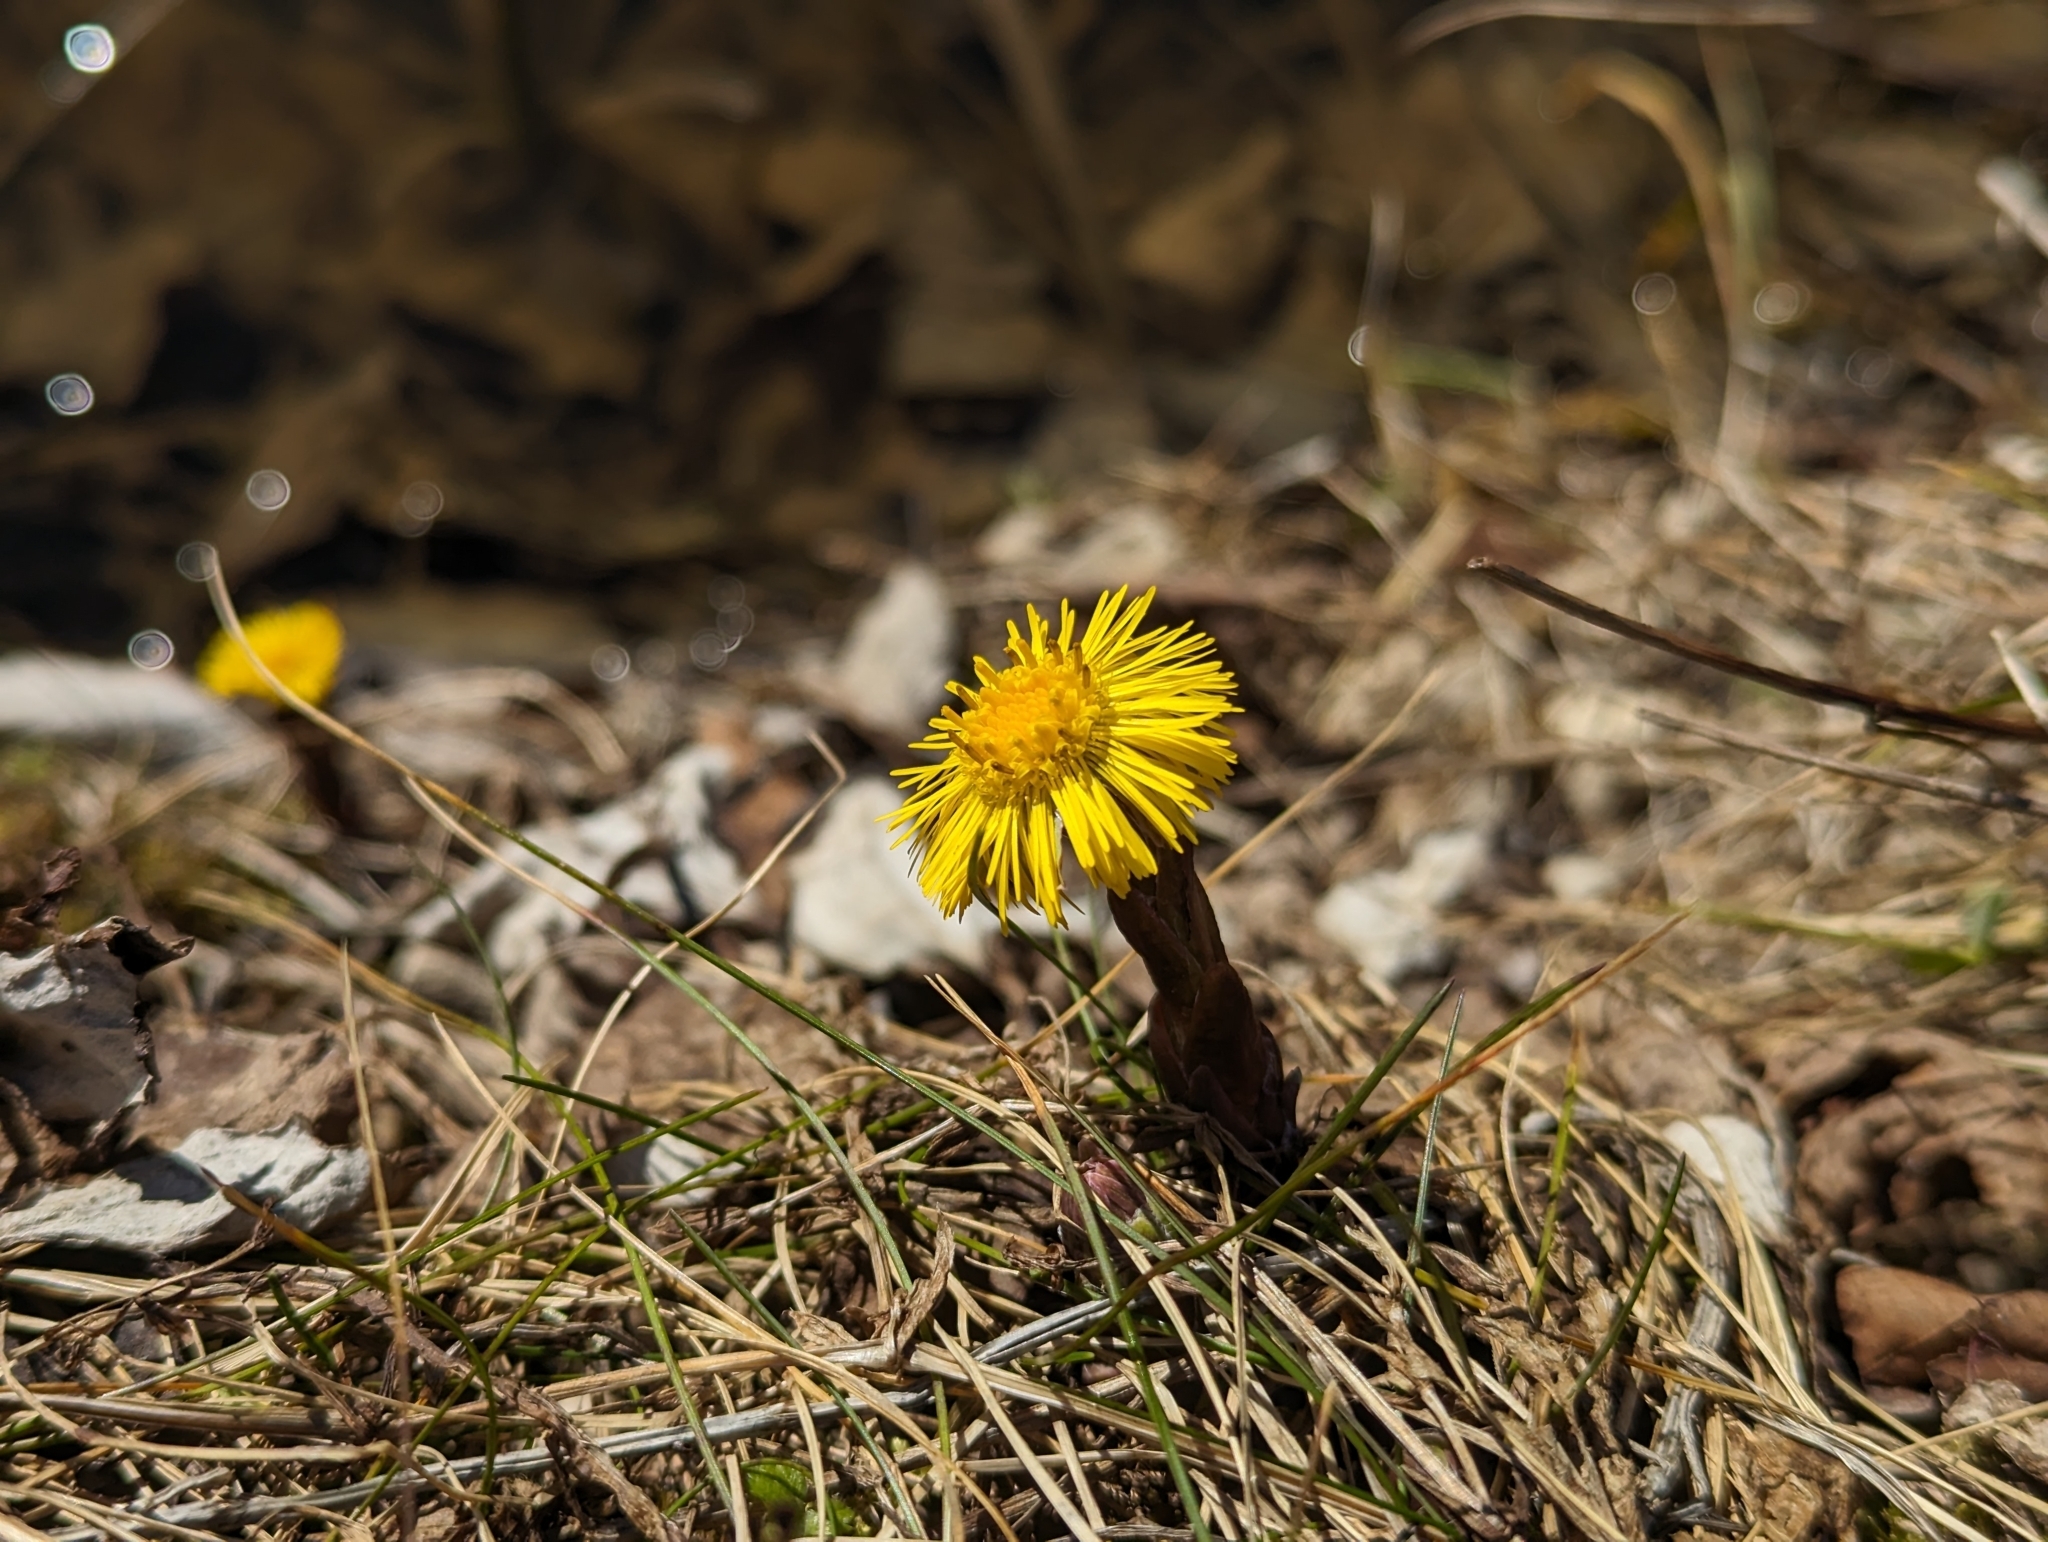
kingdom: Plantae
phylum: Tracheophyta
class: Magnoliopsida
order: Asterales
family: Asteraceae
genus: Tussilago
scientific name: Tussilago farfara
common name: Coltsfoot
